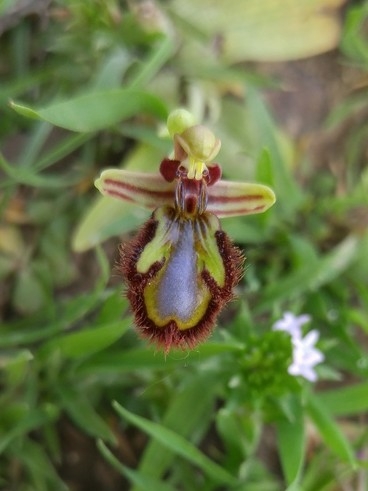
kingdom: Plantae
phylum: Tracheophyta
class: Liliopsida
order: Asparagales
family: Orchidaceae
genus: Ophrys
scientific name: Ophrys speculum
